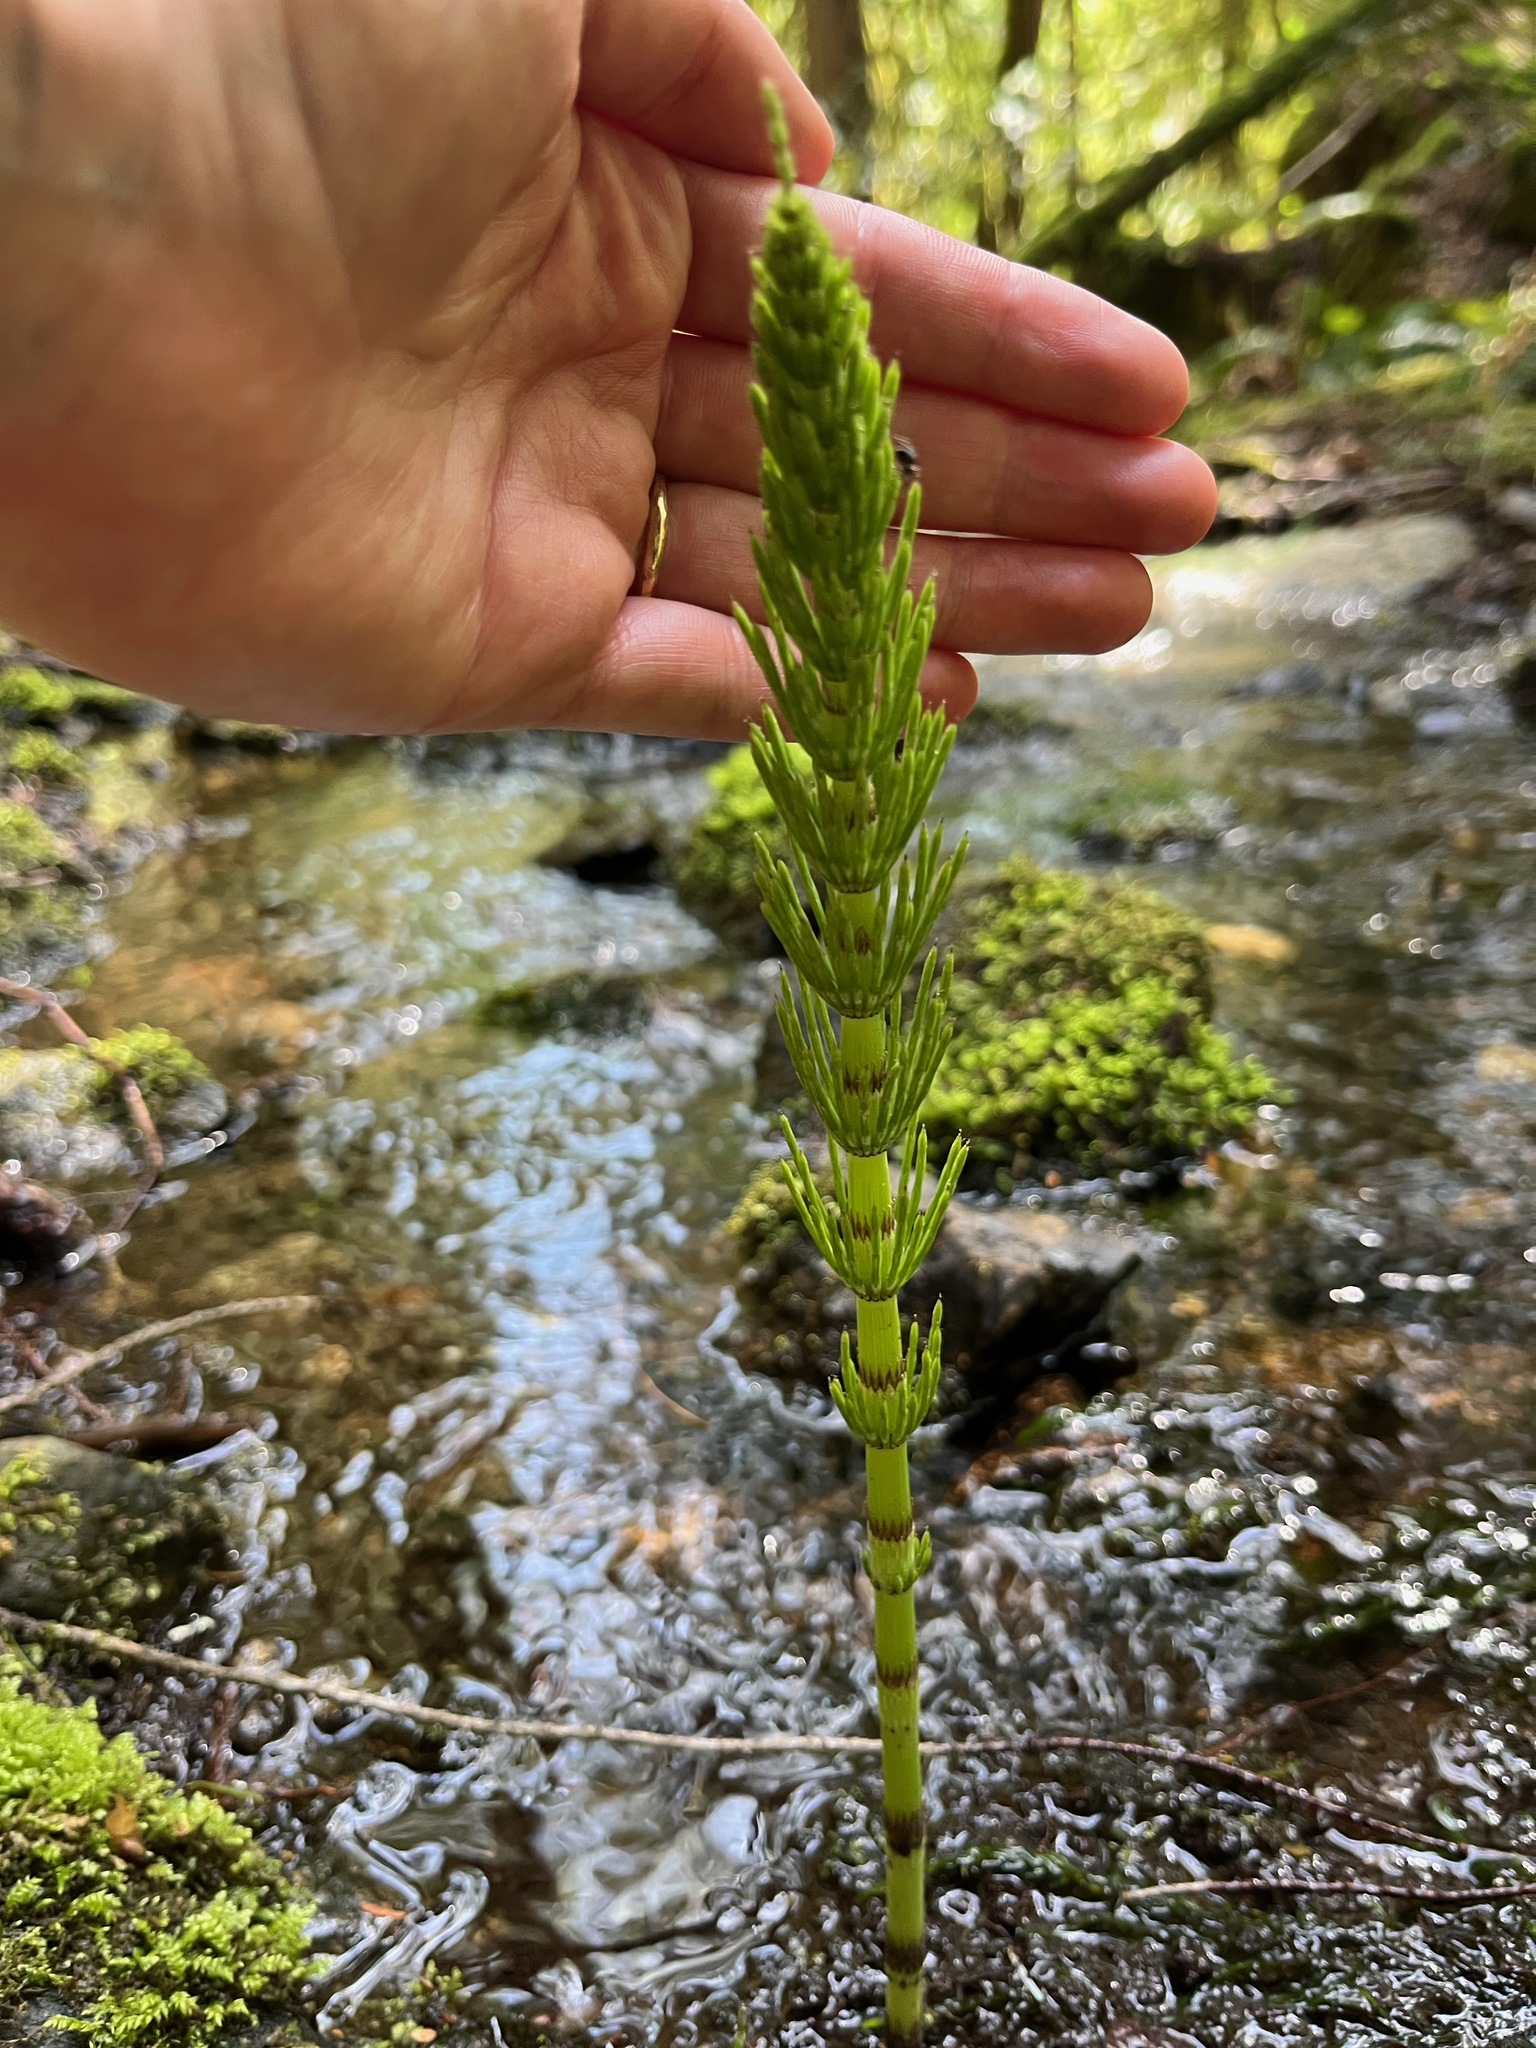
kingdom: Plantae
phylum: Tracheophyta
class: Polypodiopsida
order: Equisetales
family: Equisetaceae
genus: Equisetum
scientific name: Equisetum telmateia
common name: Great horsetail
